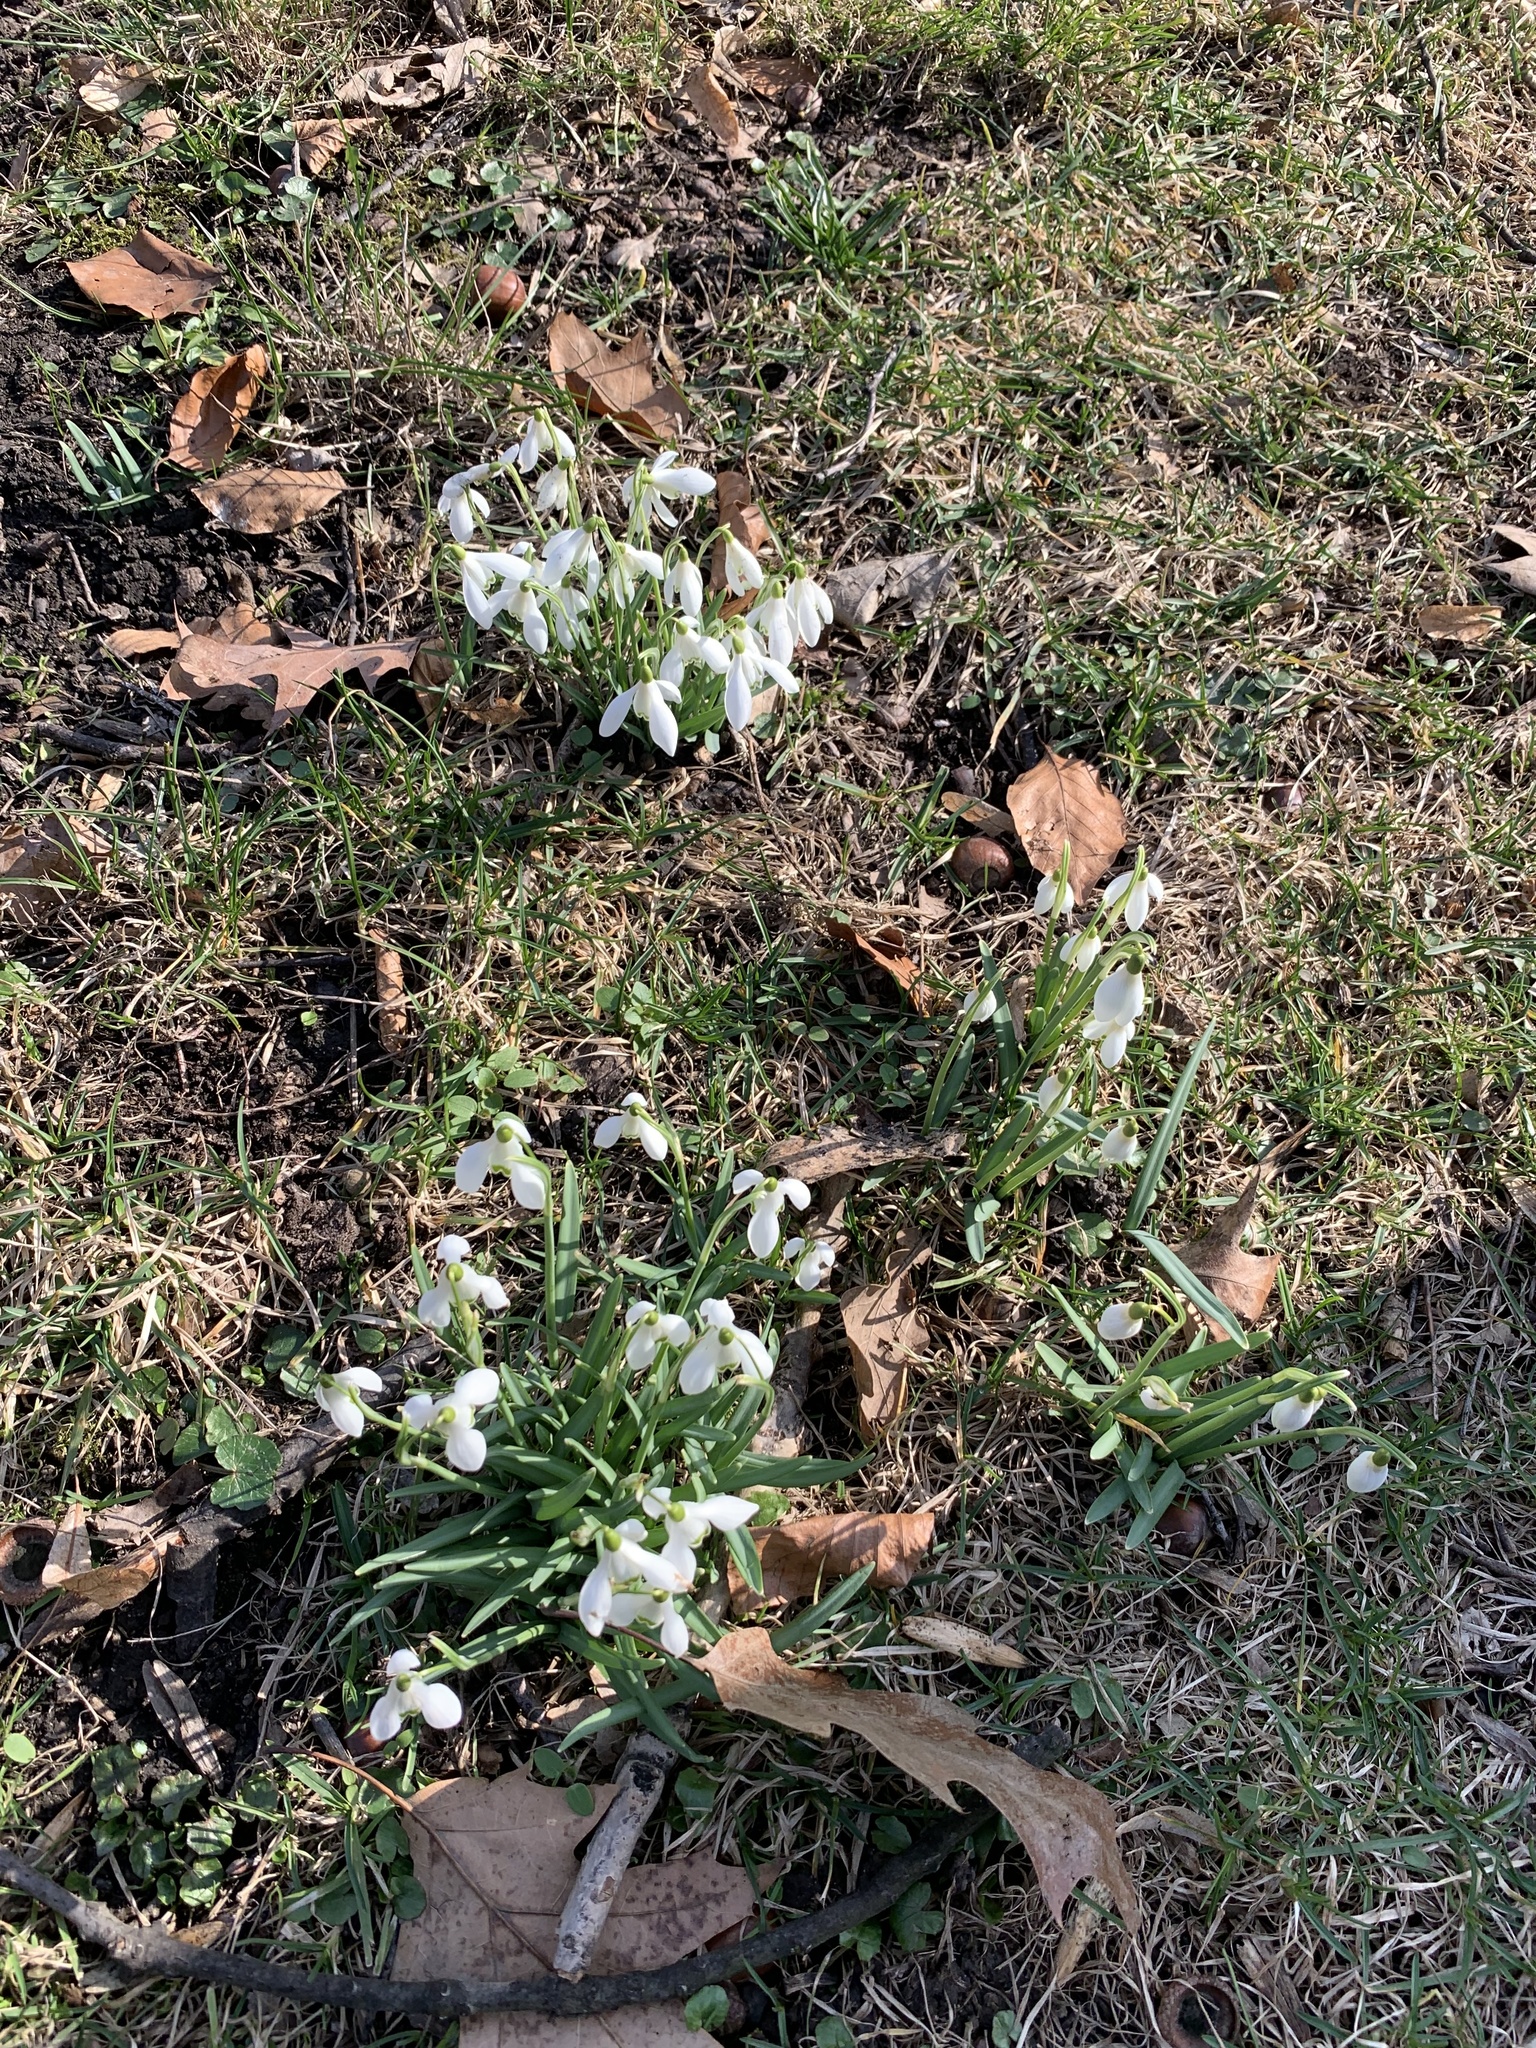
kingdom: Plantae
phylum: Tracheophyta
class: Liliopsida
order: Asparagales
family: Amaryllidaceae
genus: Galanthus
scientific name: Galanthus nivalis
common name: Snowdrop
